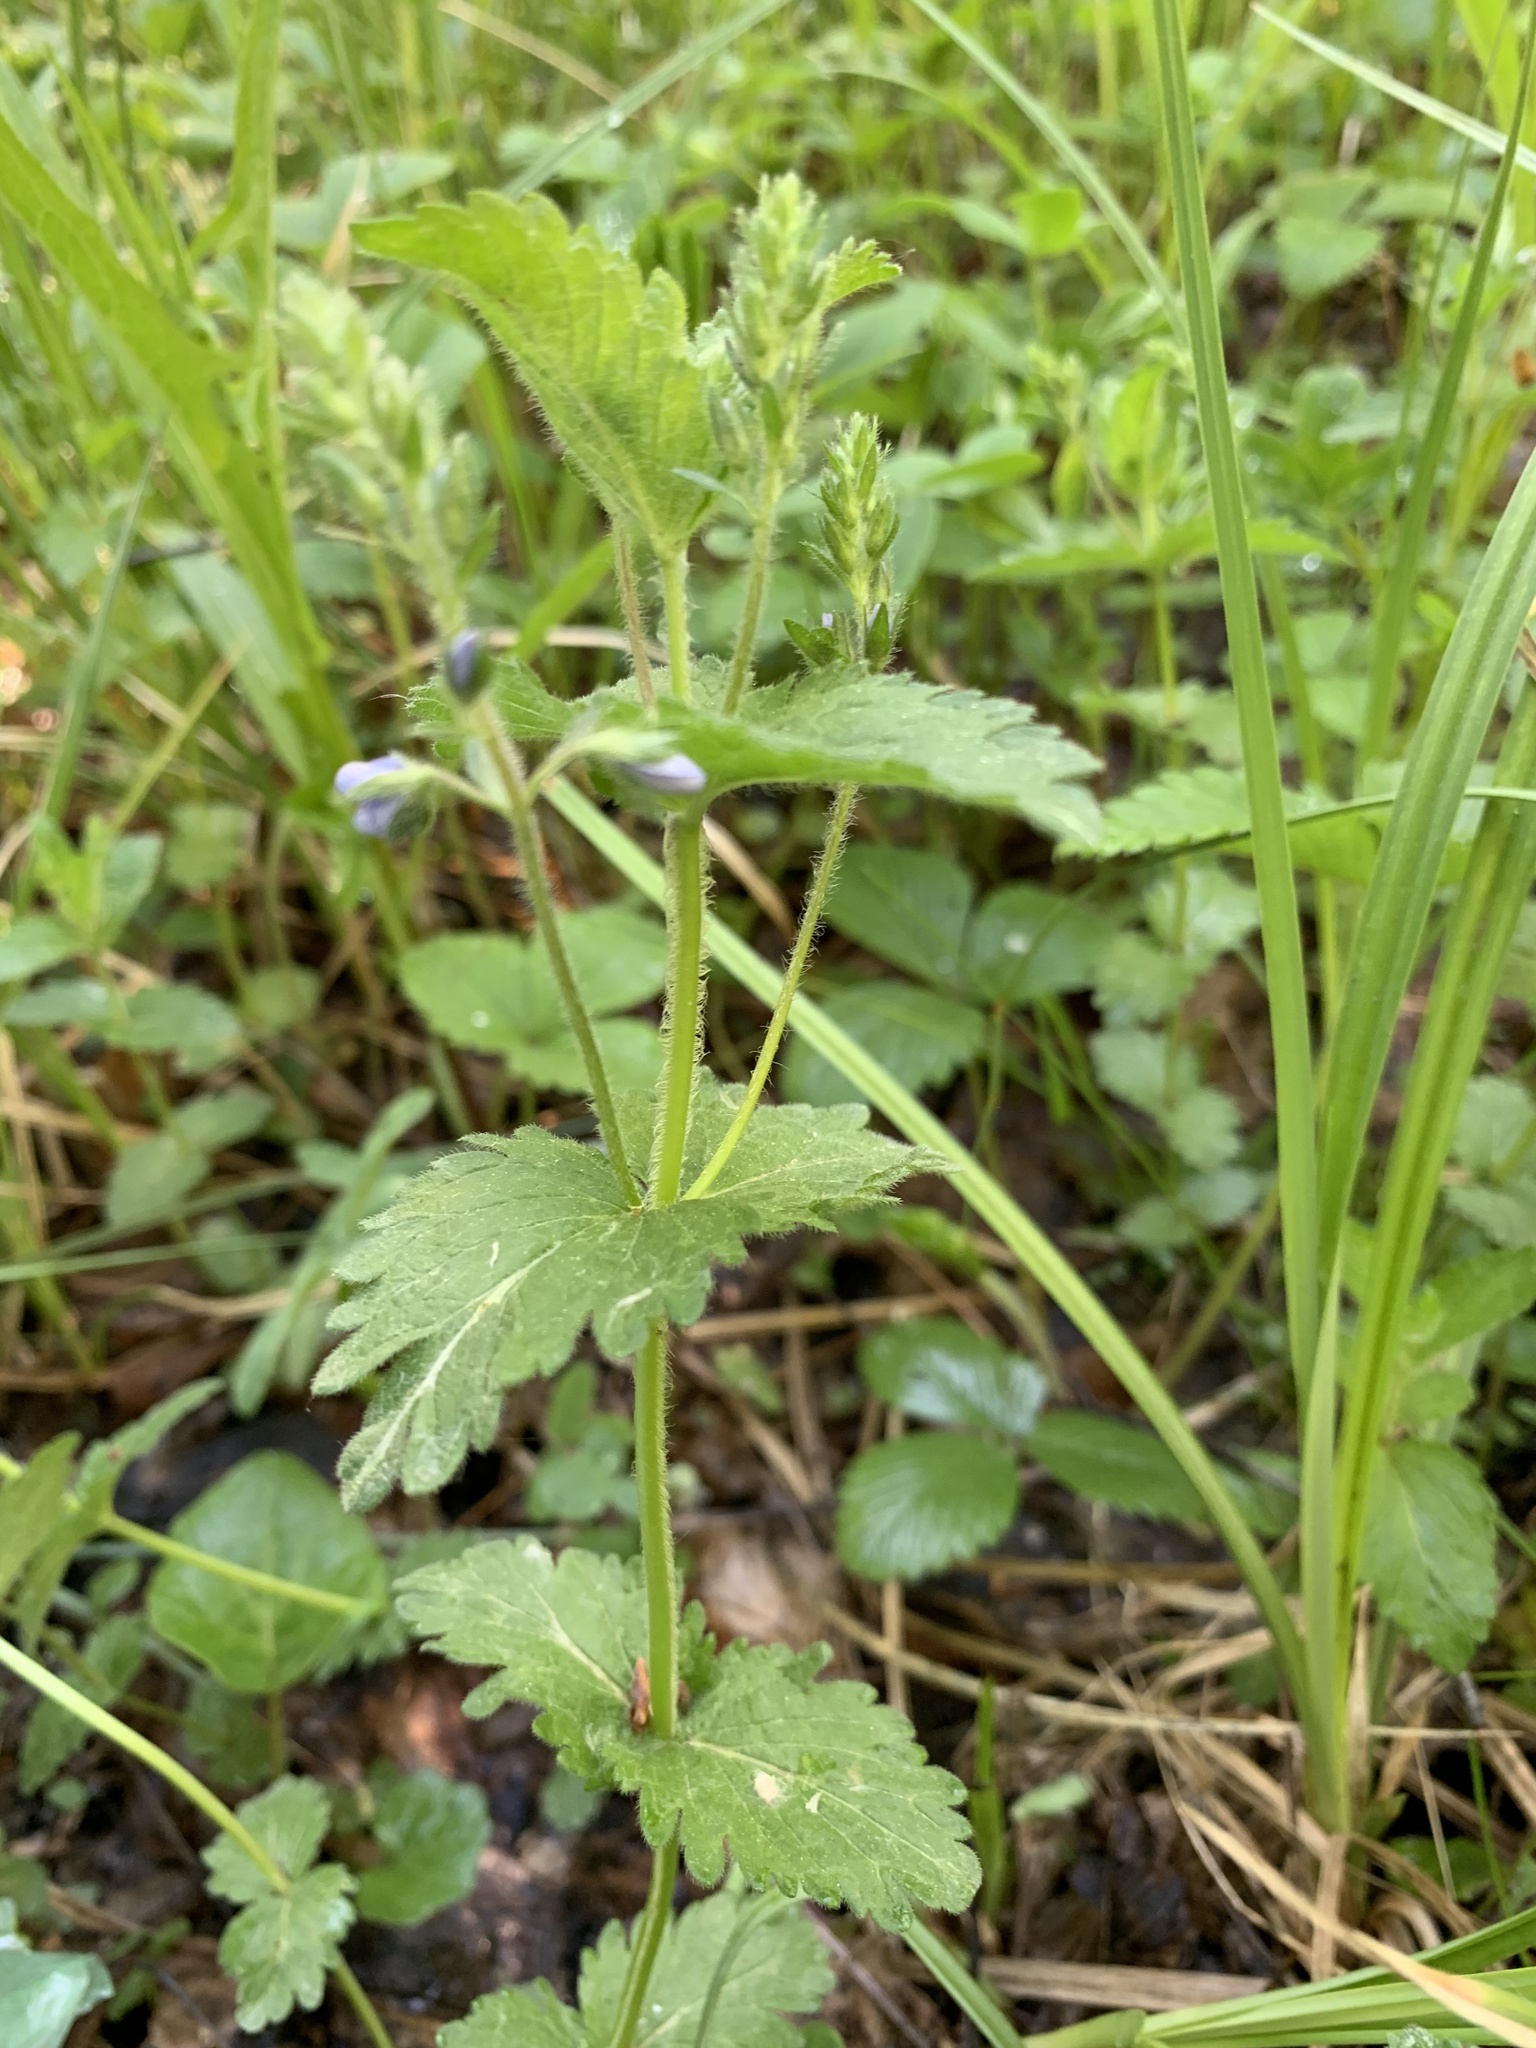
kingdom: Plantae
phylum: Tracheophyta
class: Magnoliopsida
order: Lamiales
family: Plantaginaceae
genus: Veronica
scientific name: Veronica chamaedrys
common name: Germander speedwell
